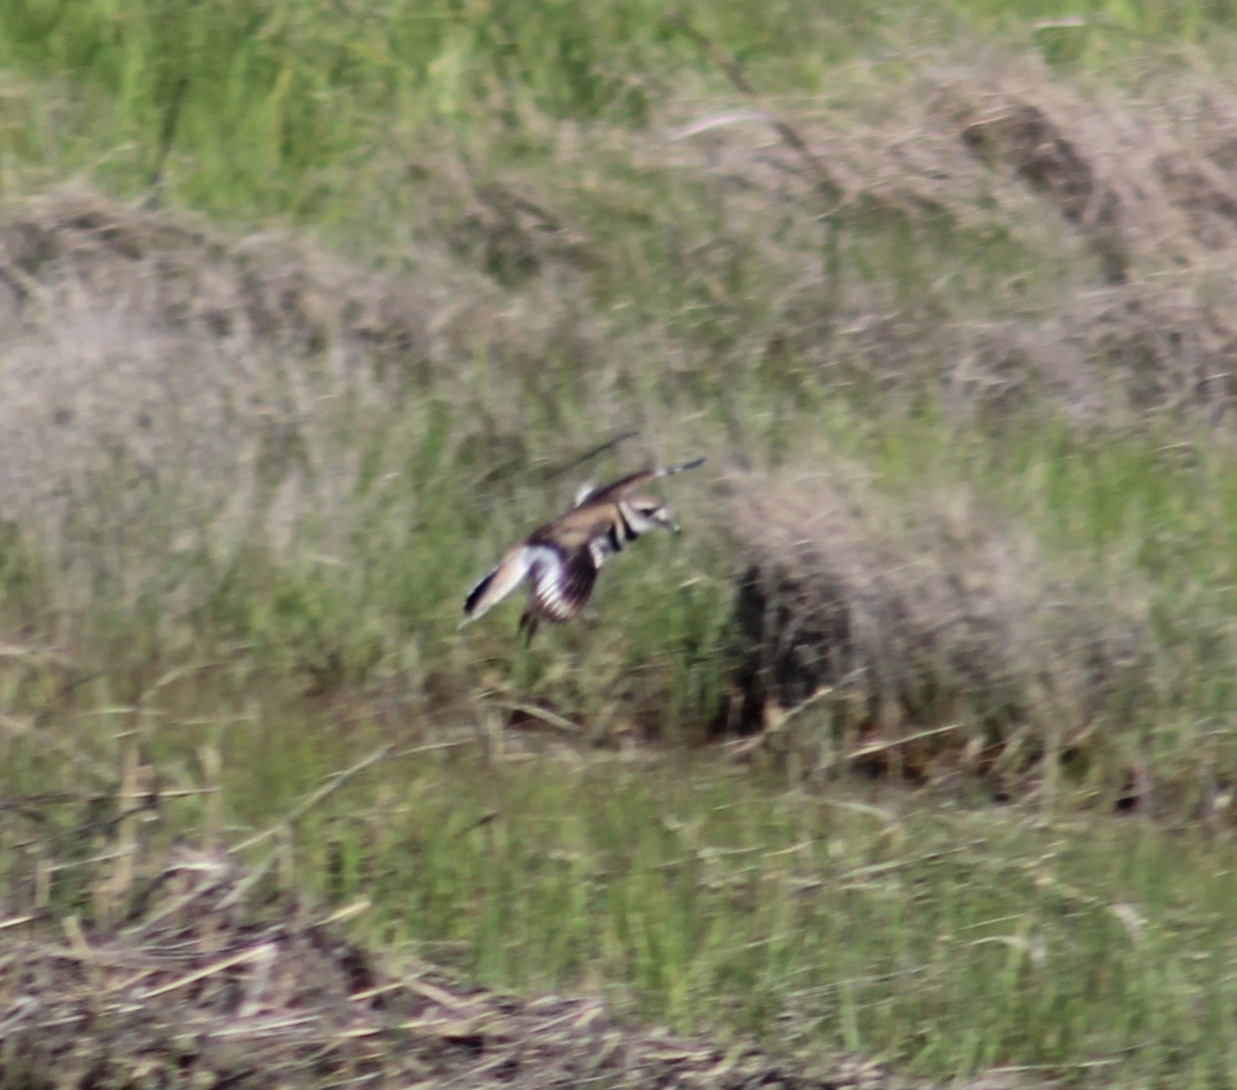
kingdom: Animalia
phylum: Chordata
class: Aves
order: Charadriiformes
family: Charadriidae
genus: Charadrius
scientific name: Charadrius vociferus
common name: Killdeer
